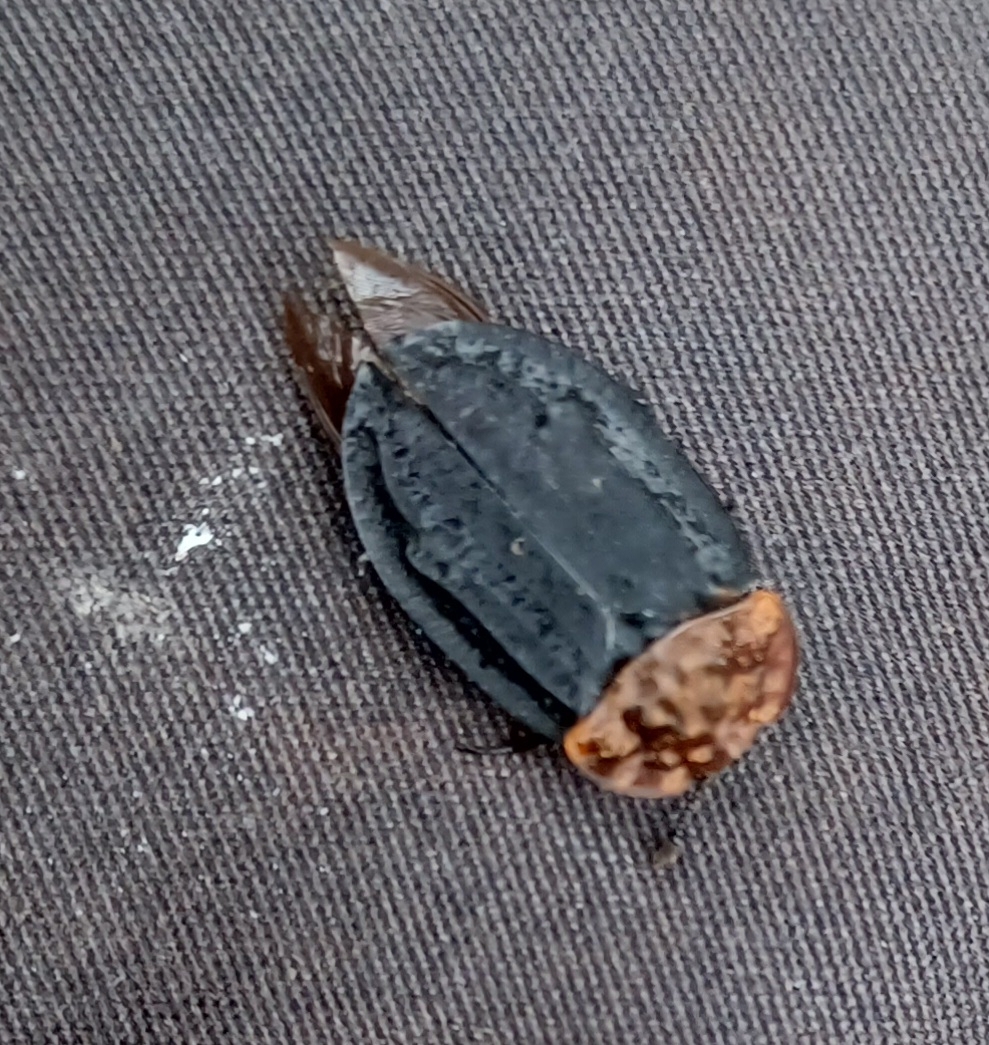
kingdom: Animalia
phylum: Arthropoda
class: Insecta
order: Coleoptera
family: Staphylinidae
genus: Oiceoptoma
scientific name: Oiceoptoma thoracicum
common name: Red-breasted carrion beetle
